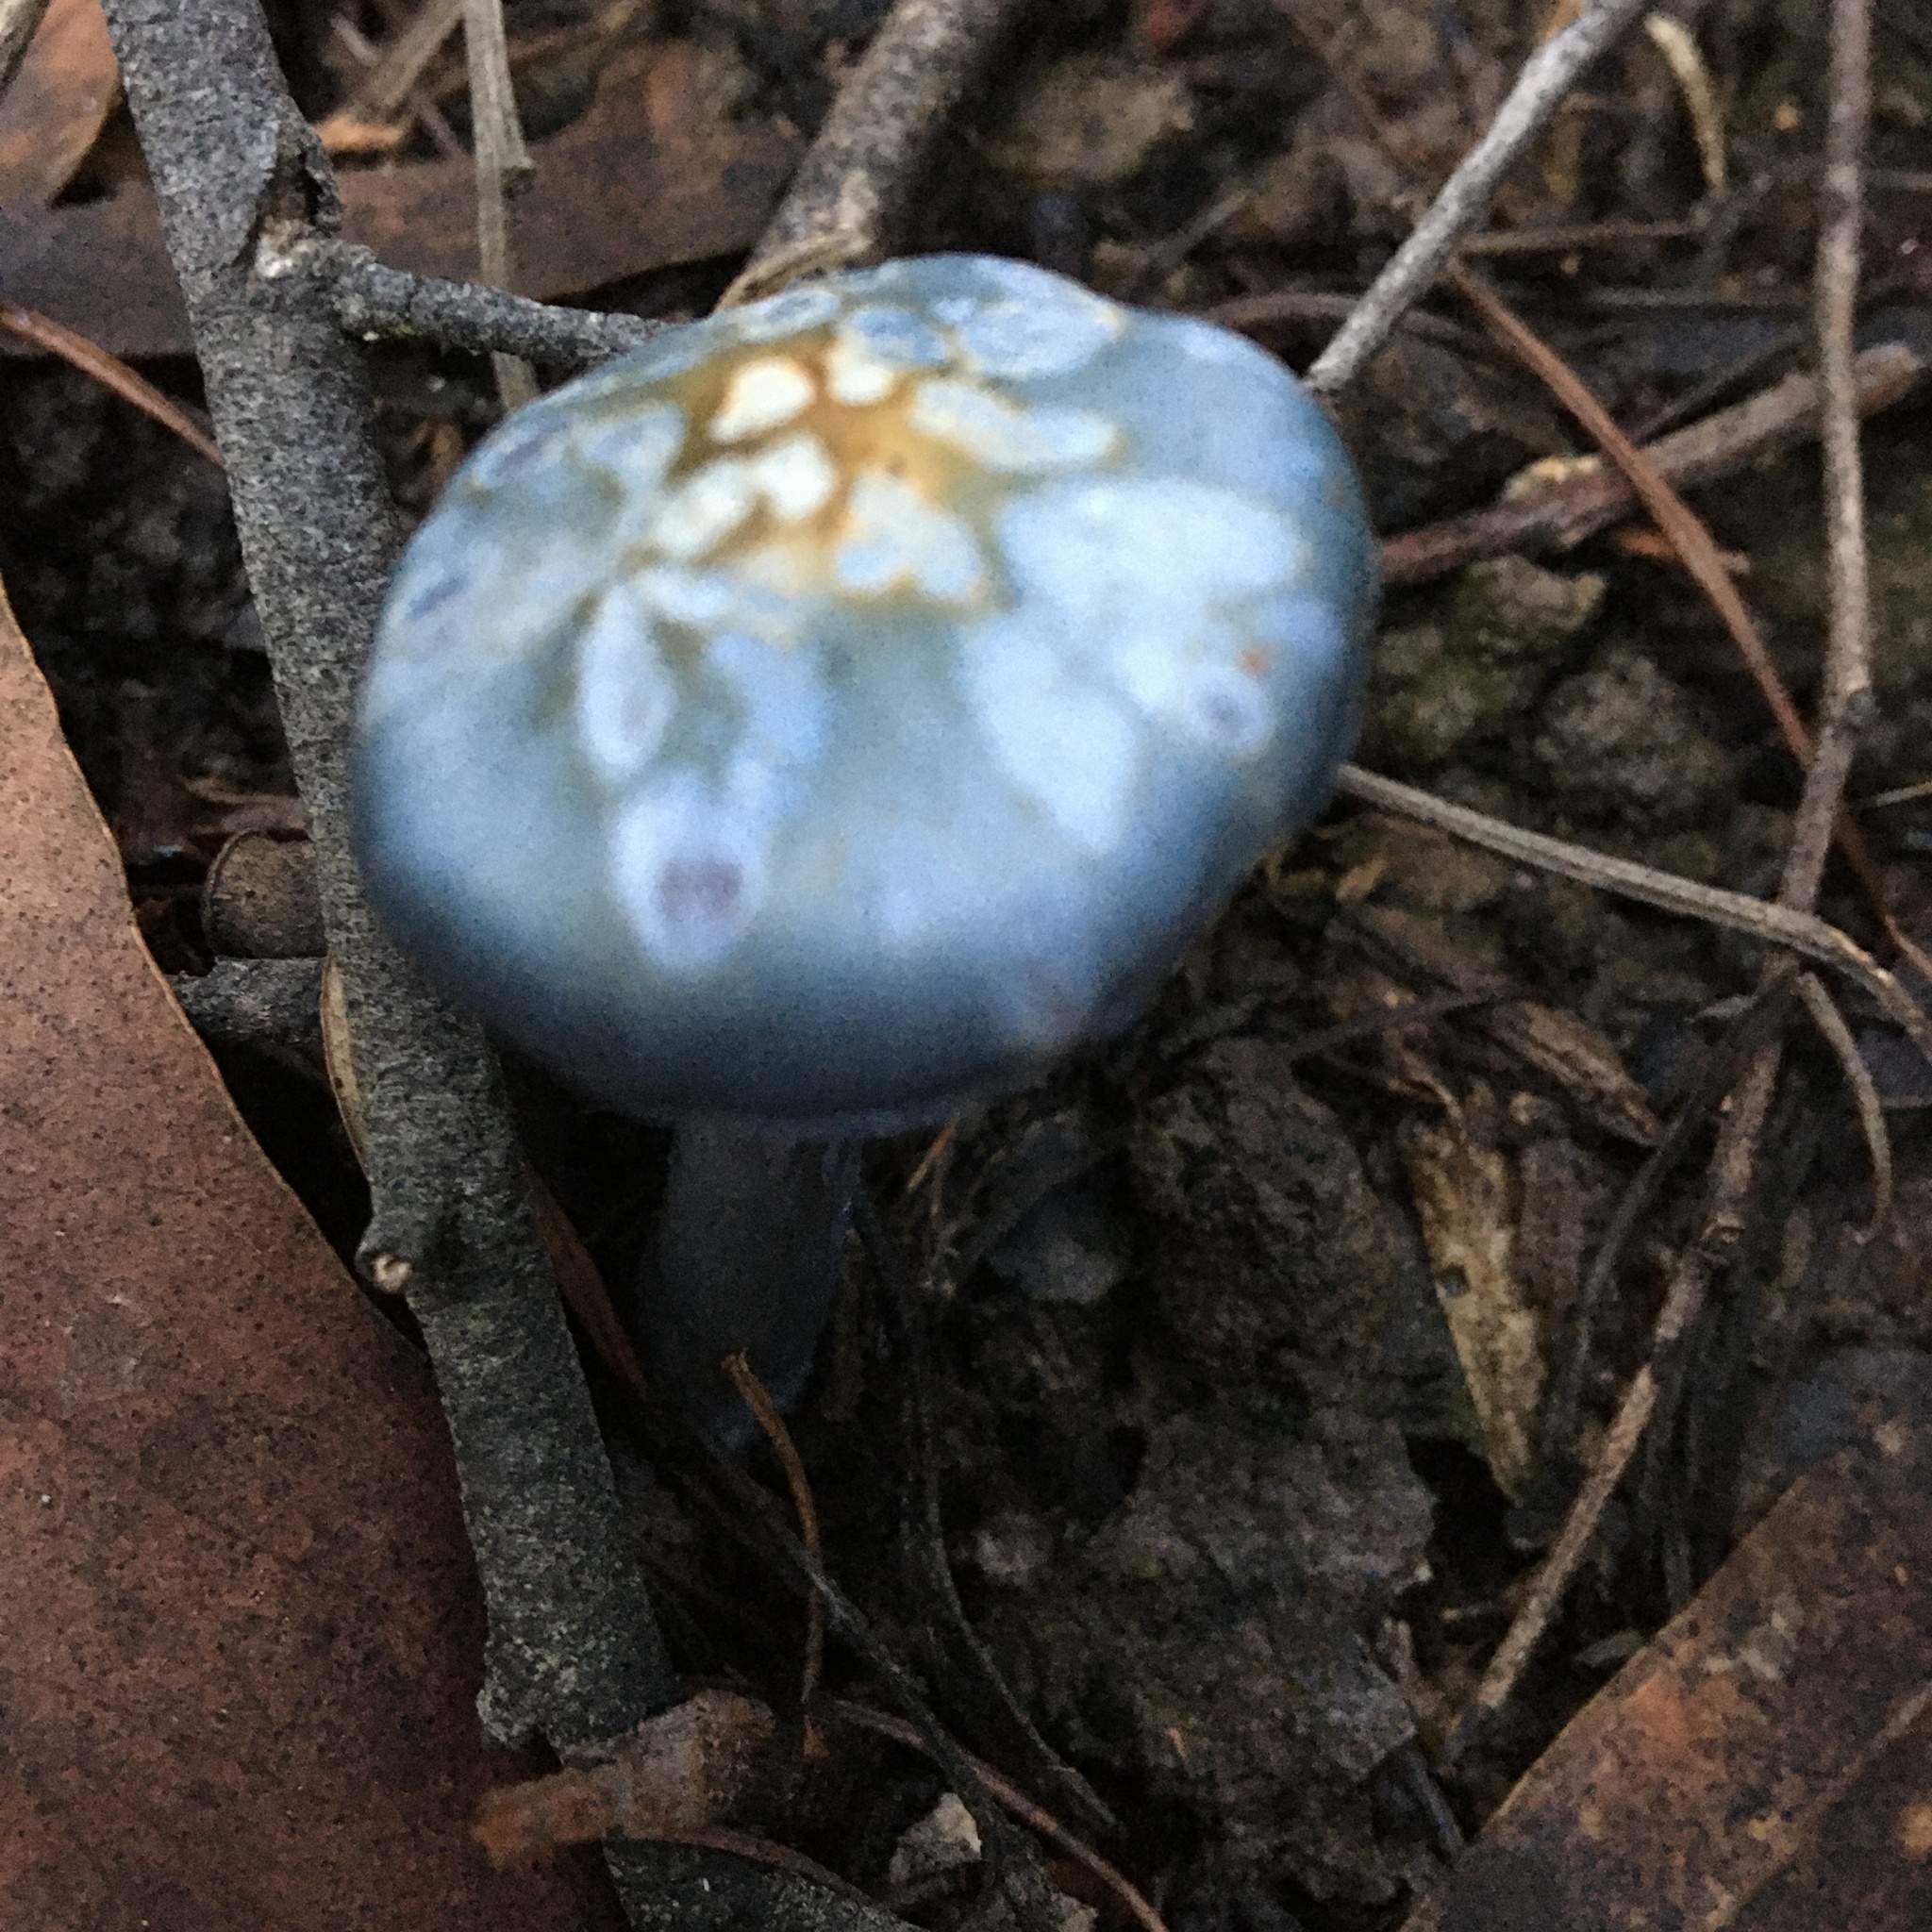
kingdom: Fungi
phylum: Basidiomycota
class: Agaricomycetes
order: Agaricales
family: Cortinariaceae
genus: Cortinarius
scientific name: Cortinarius rotundisporus
